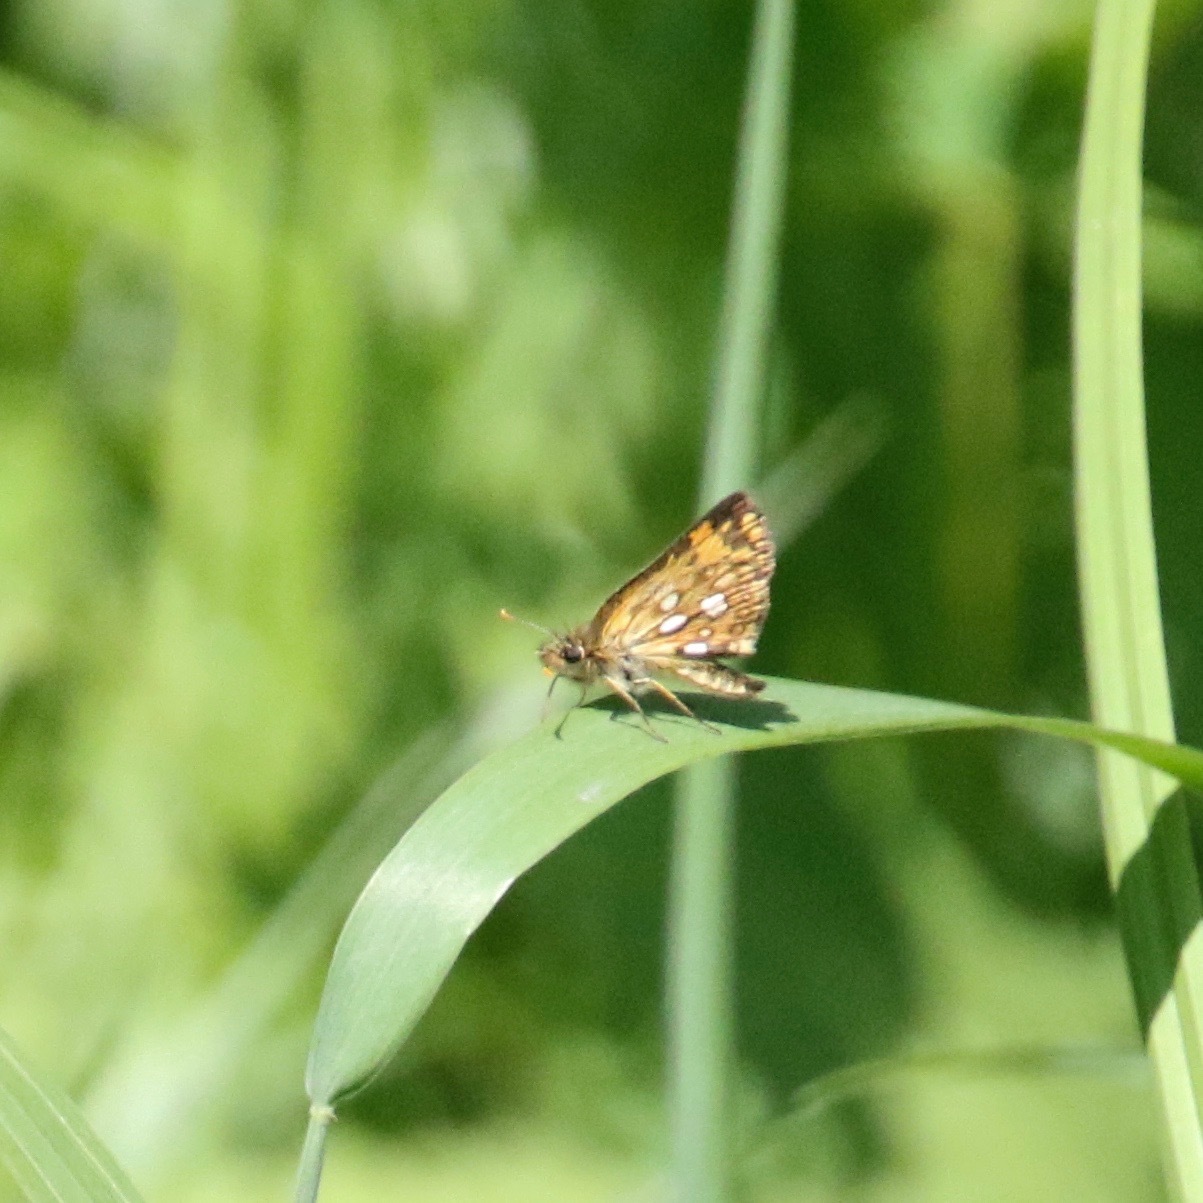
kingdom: Animalia
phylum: Arthropoda
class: Insecta
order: Lepidoptera
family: Hesperiidae
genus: Carterocephalus
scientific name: Carterocephalus mandan
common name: Arctic skipperling
